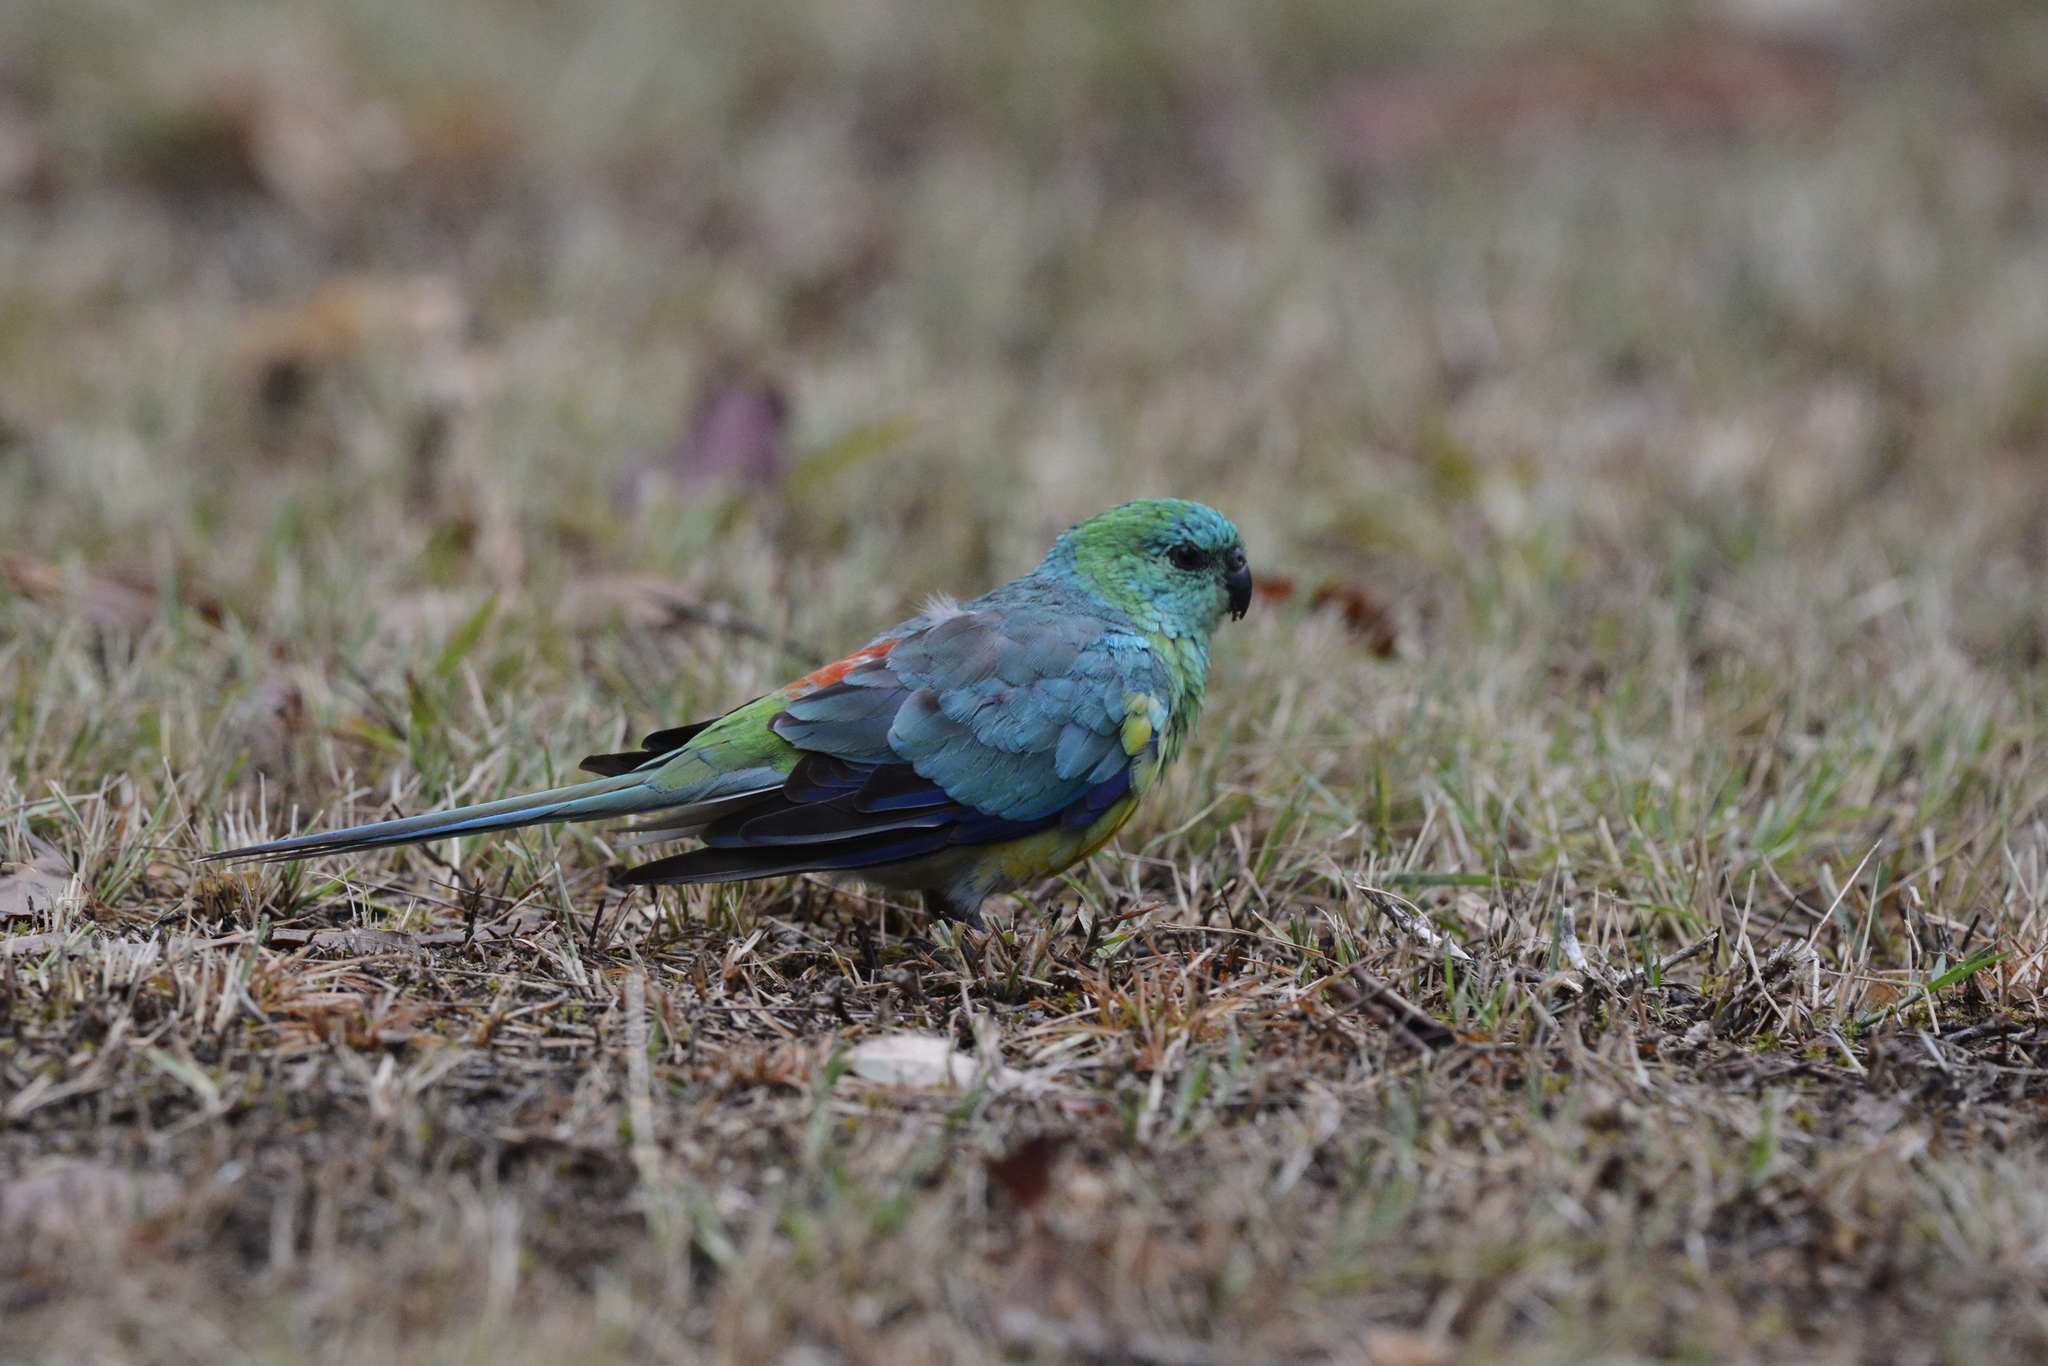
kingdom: Animalia
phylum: Chordata
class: Aves
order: Psittaciformes
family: Psittacidae
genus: Psephotus
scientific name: Psephotus haematonotus
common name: Red-rumped parrot
